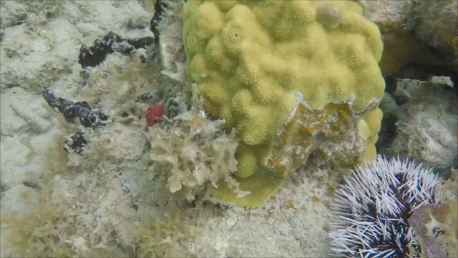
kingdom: Animalia
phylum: Echinodermata
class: Echinoidea
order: Camarodonta
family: Toxopneustidae
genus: Tripneustes
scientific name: Tripneustes ventricosus
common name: West indian sea egg
